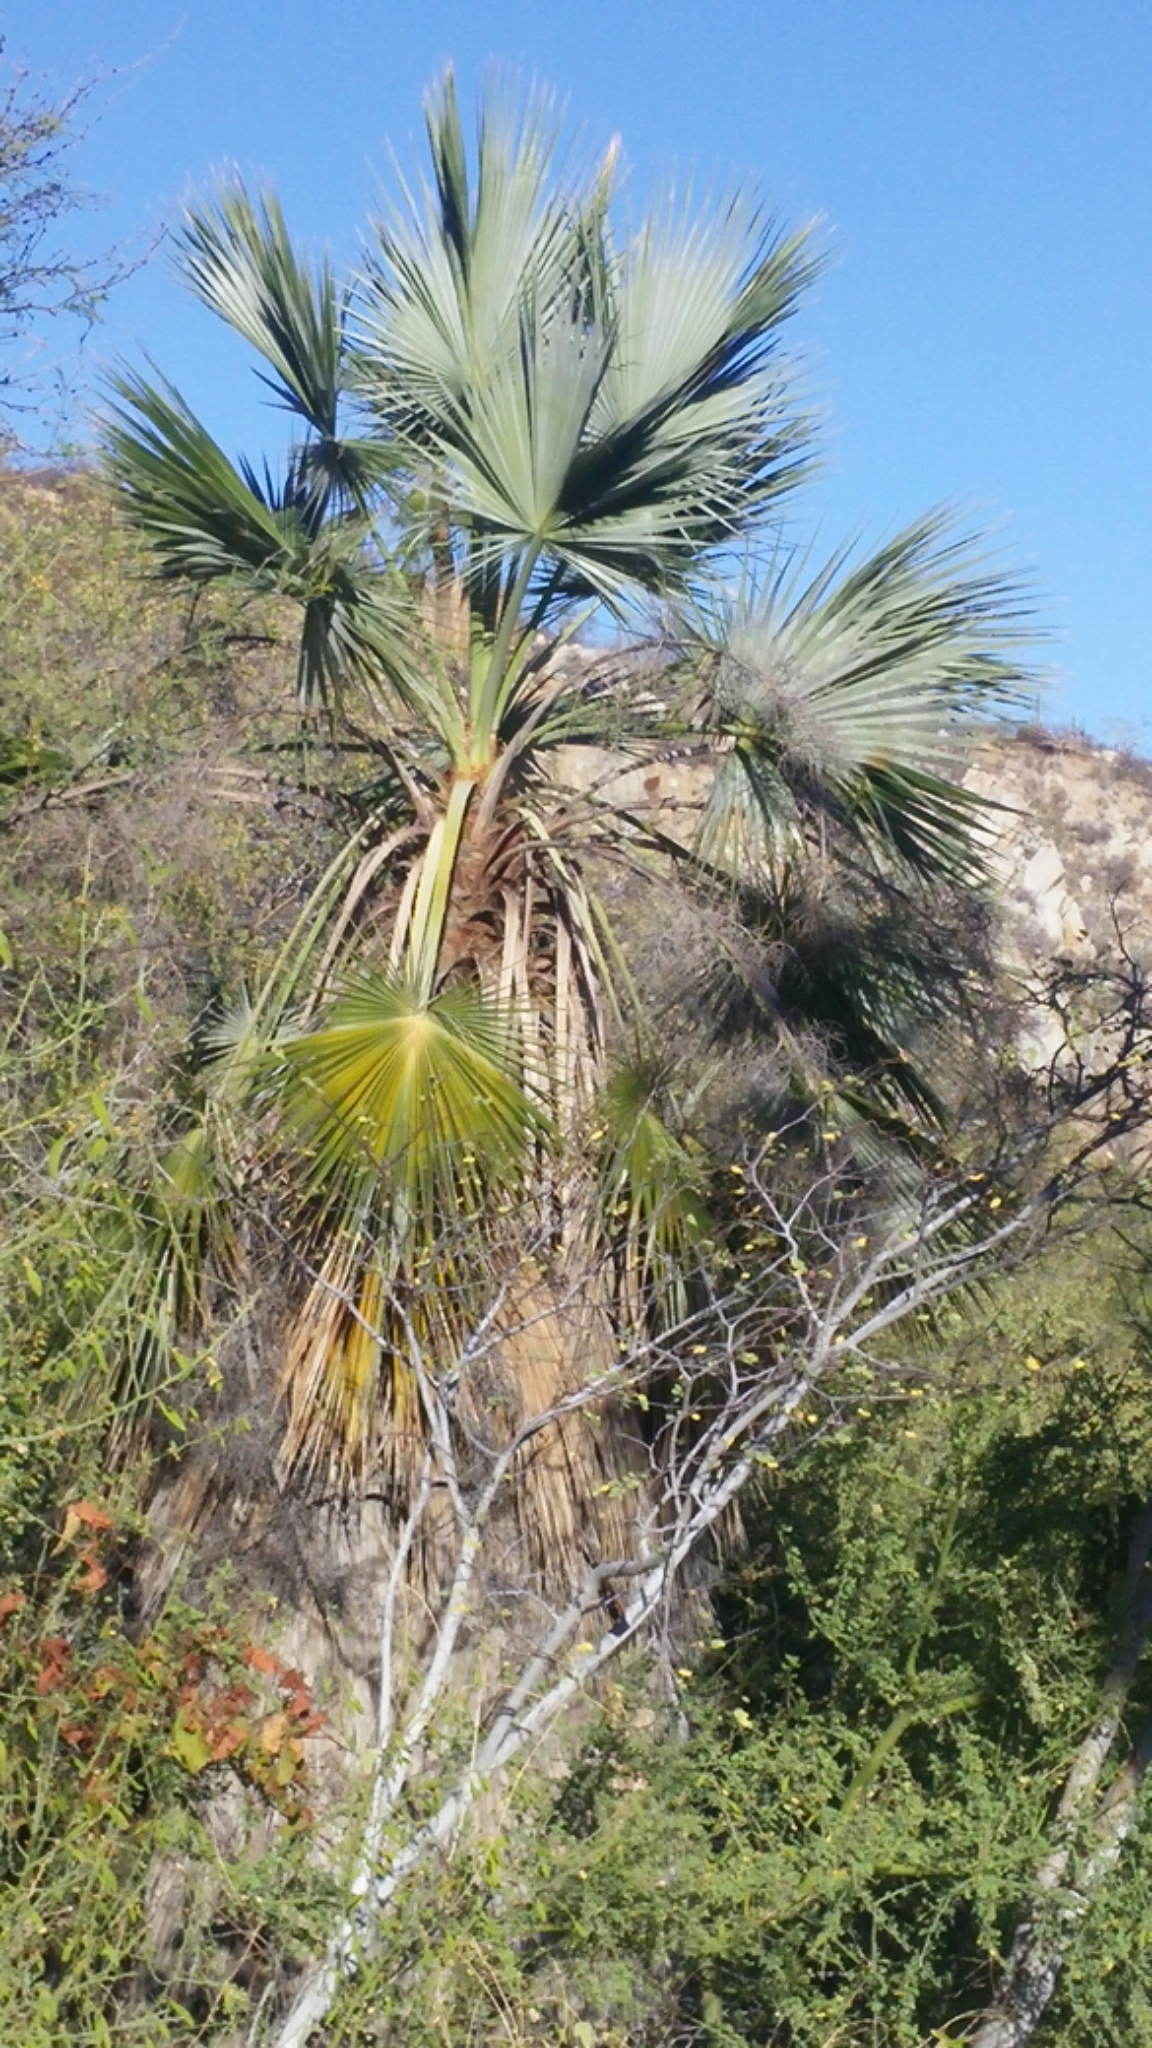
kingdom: Plantae
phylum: Tracheophyta
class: Liliopsida
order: Arecales
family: Arecaceae
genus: Brahea
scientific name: Brahea brandegeei
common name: San jose hesper palm
